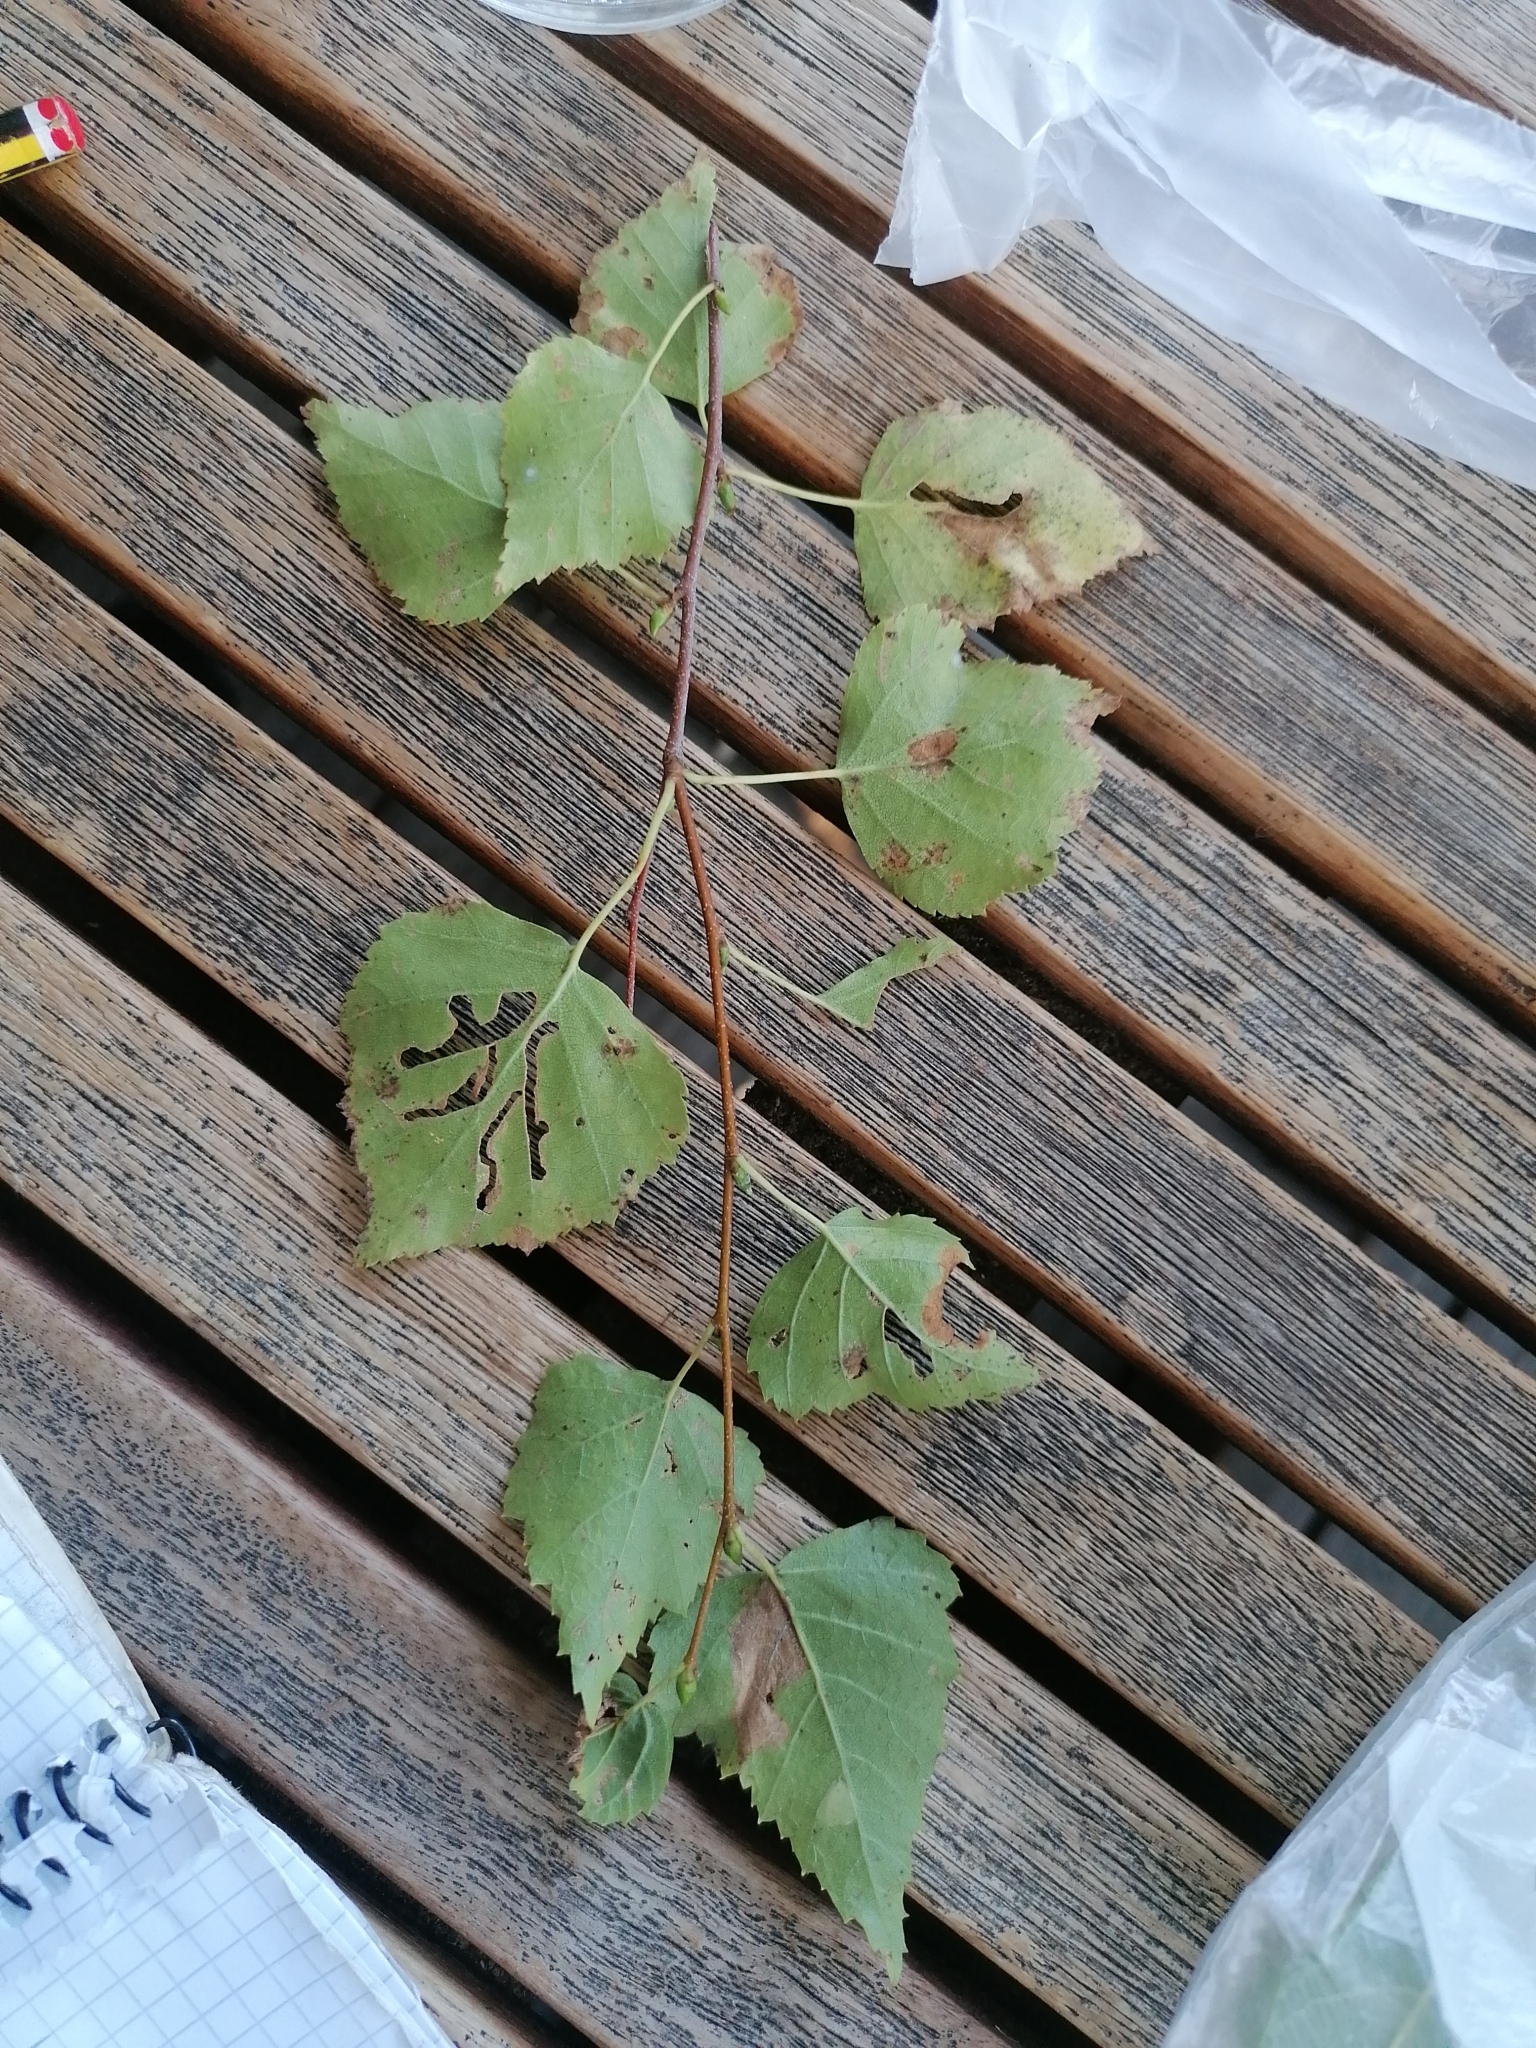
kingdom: Animalia
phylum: Arthropoda
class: Insecta
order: Hymenoptera
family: Tenthredinidae
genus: Hemichroa
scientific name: Hemichroa australis
